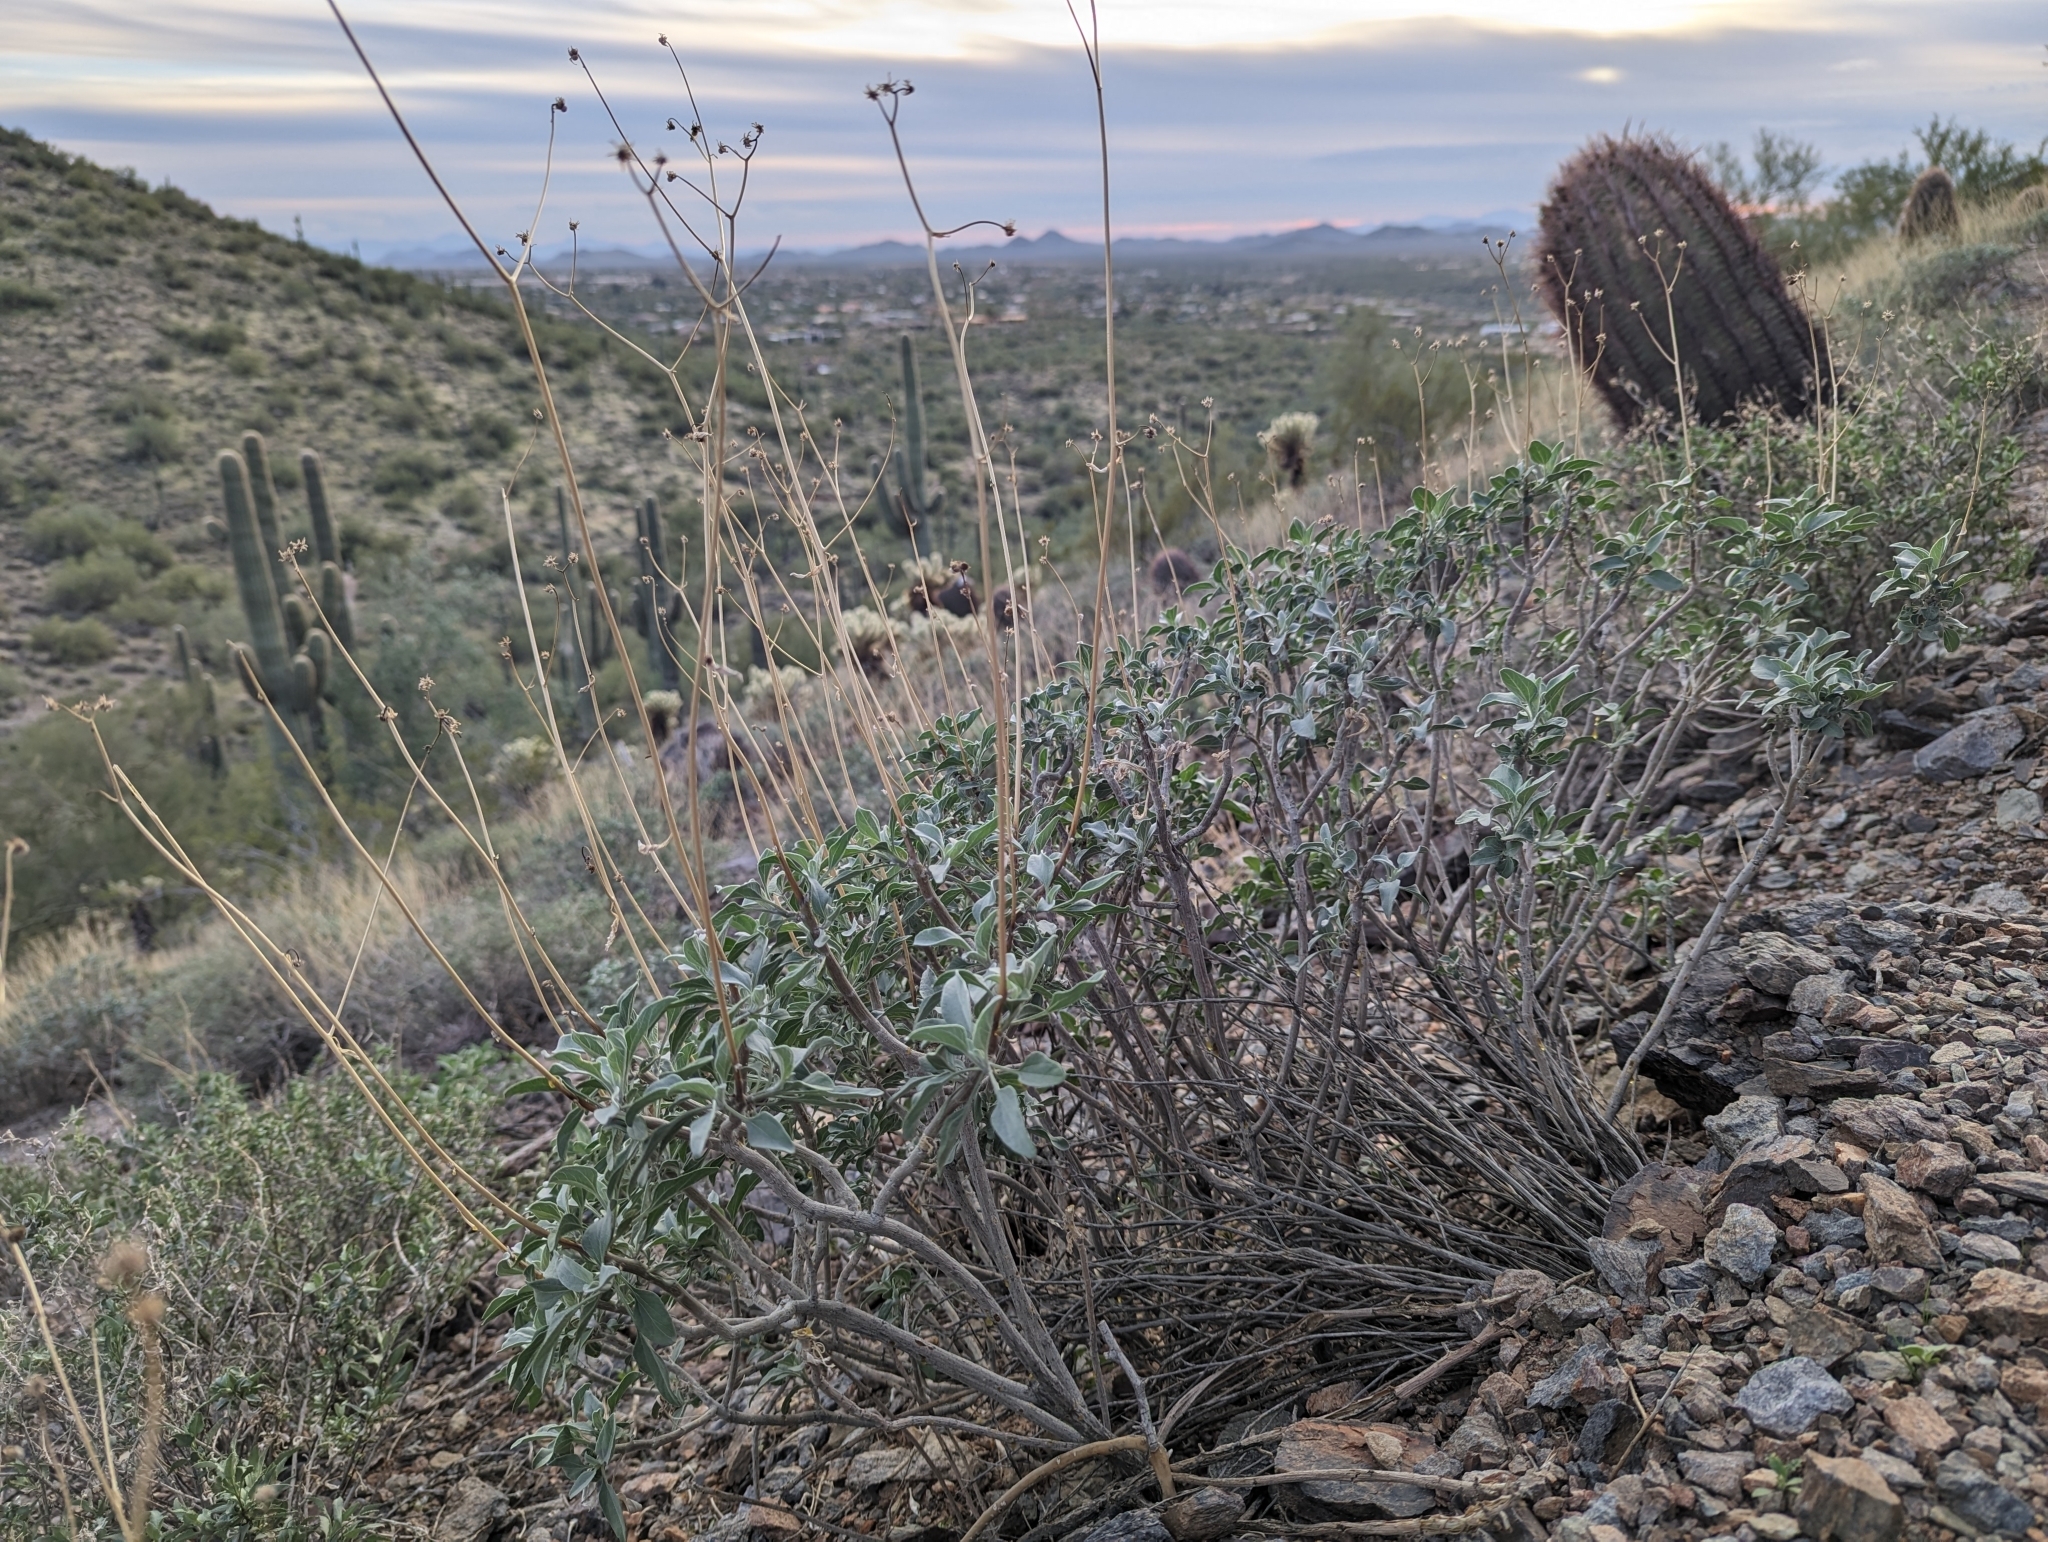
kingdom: Plantae
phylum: Tracheophyta
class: Magnoliopsida
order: Asterales
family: Asteraceae
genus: Encelia
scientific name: Encelia farinosa
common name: Brittlebush
